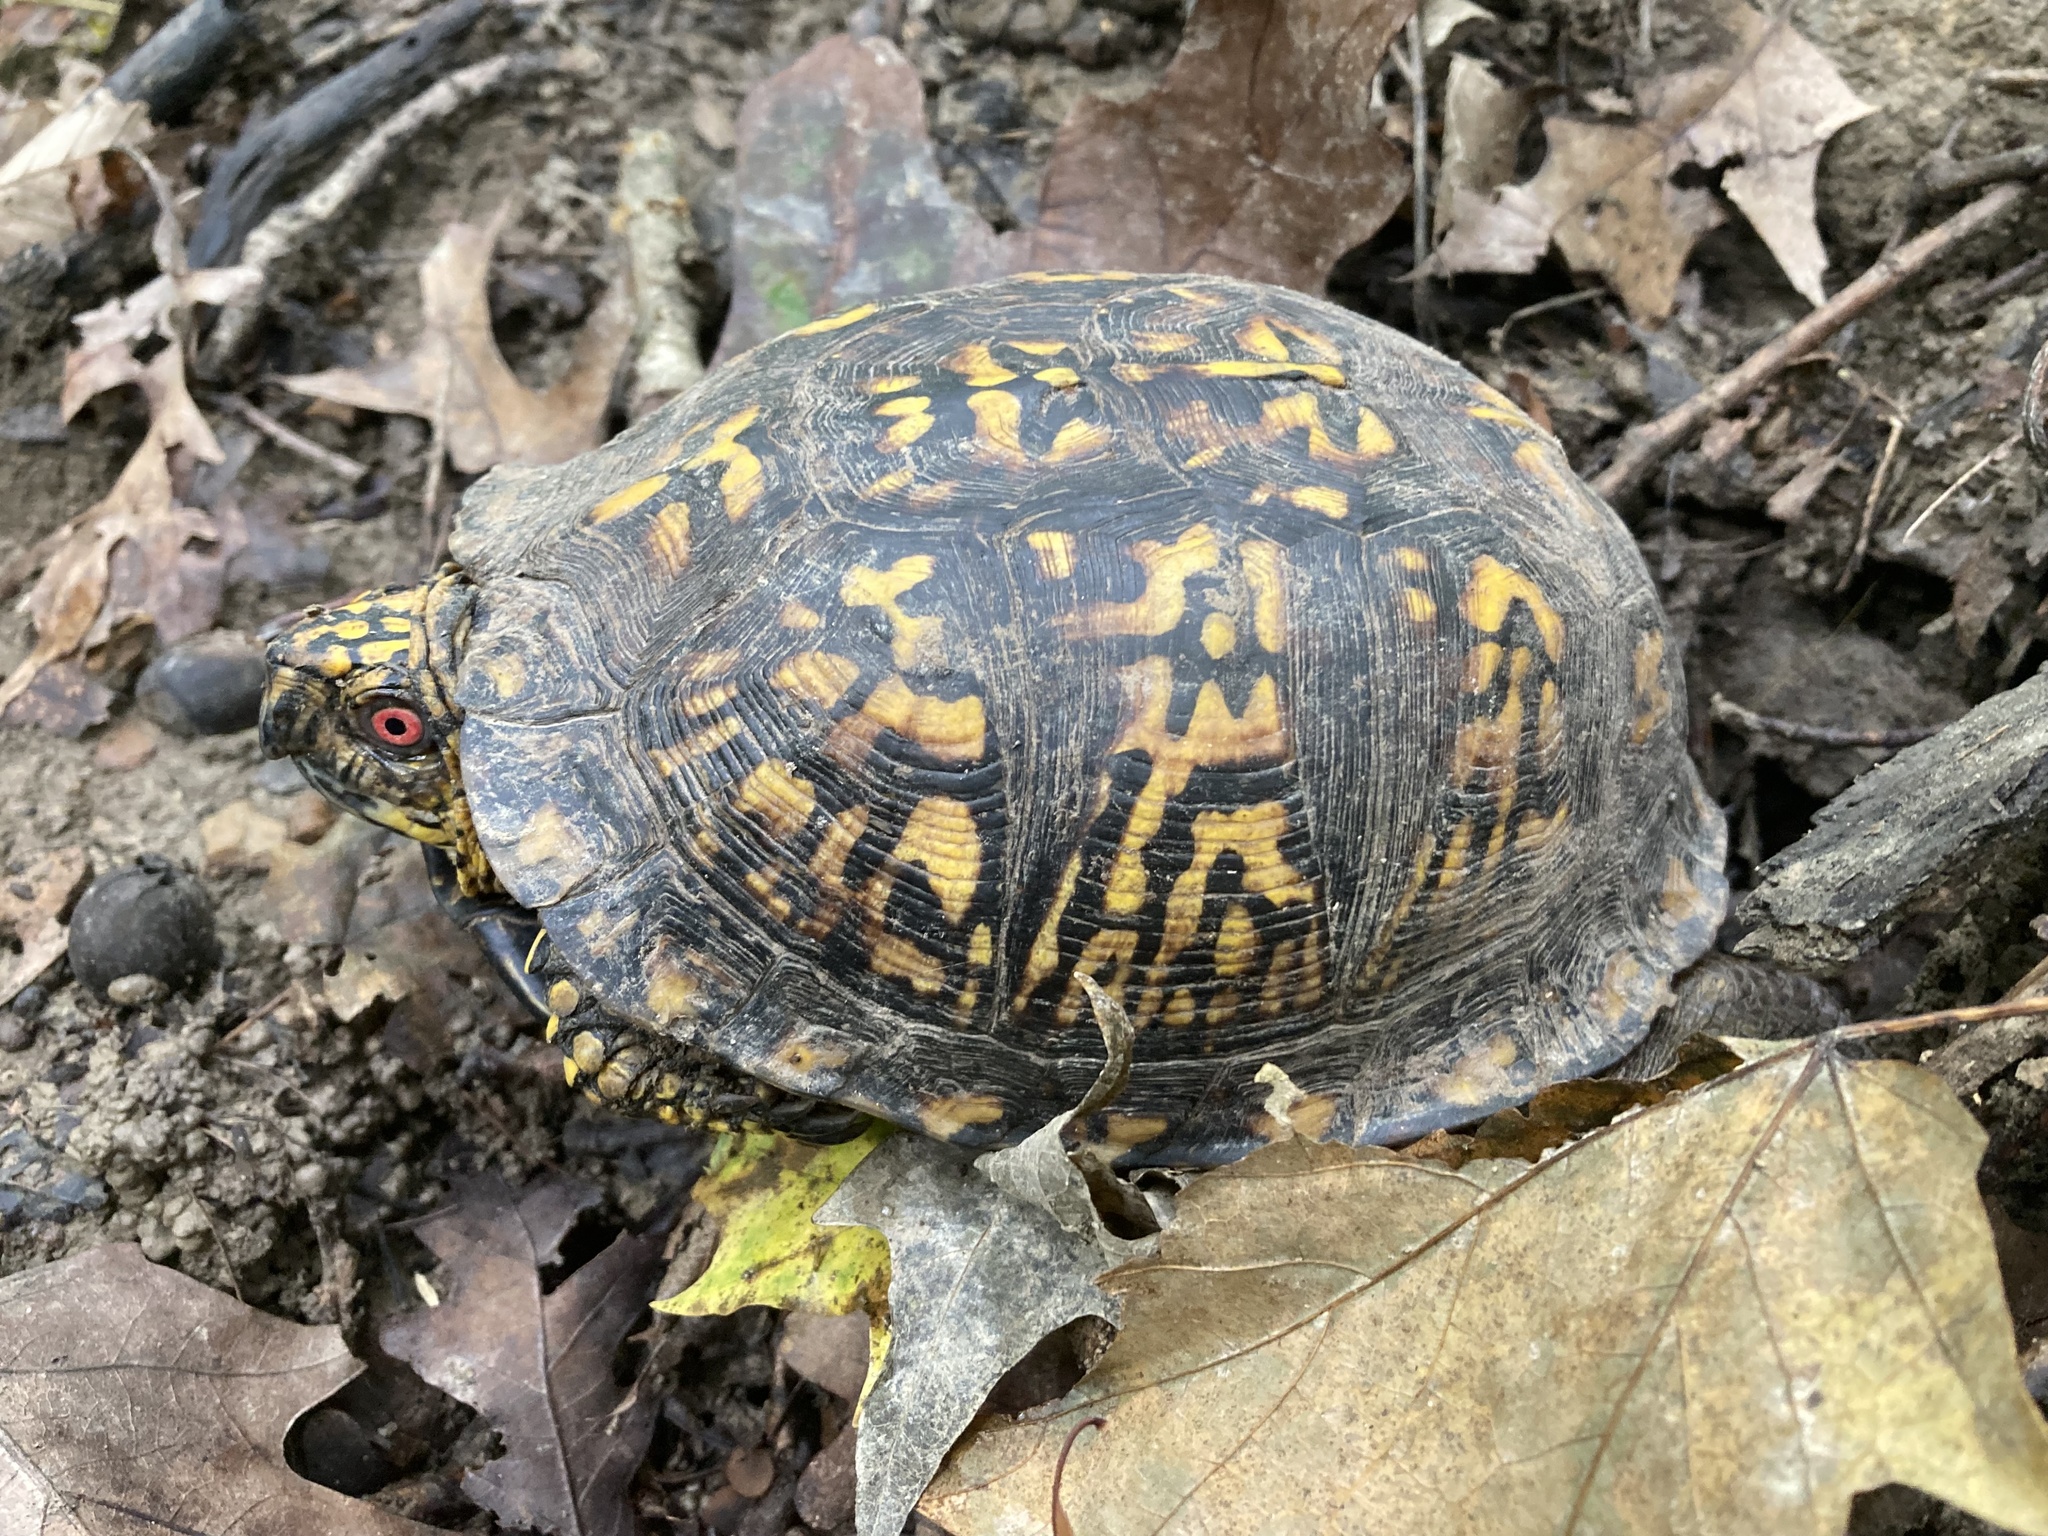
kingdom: Animalia
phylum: Chordata
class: Testudines
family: Emydidae
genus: Terrapene
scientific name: Terrapene carolina
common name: Common box turtle
